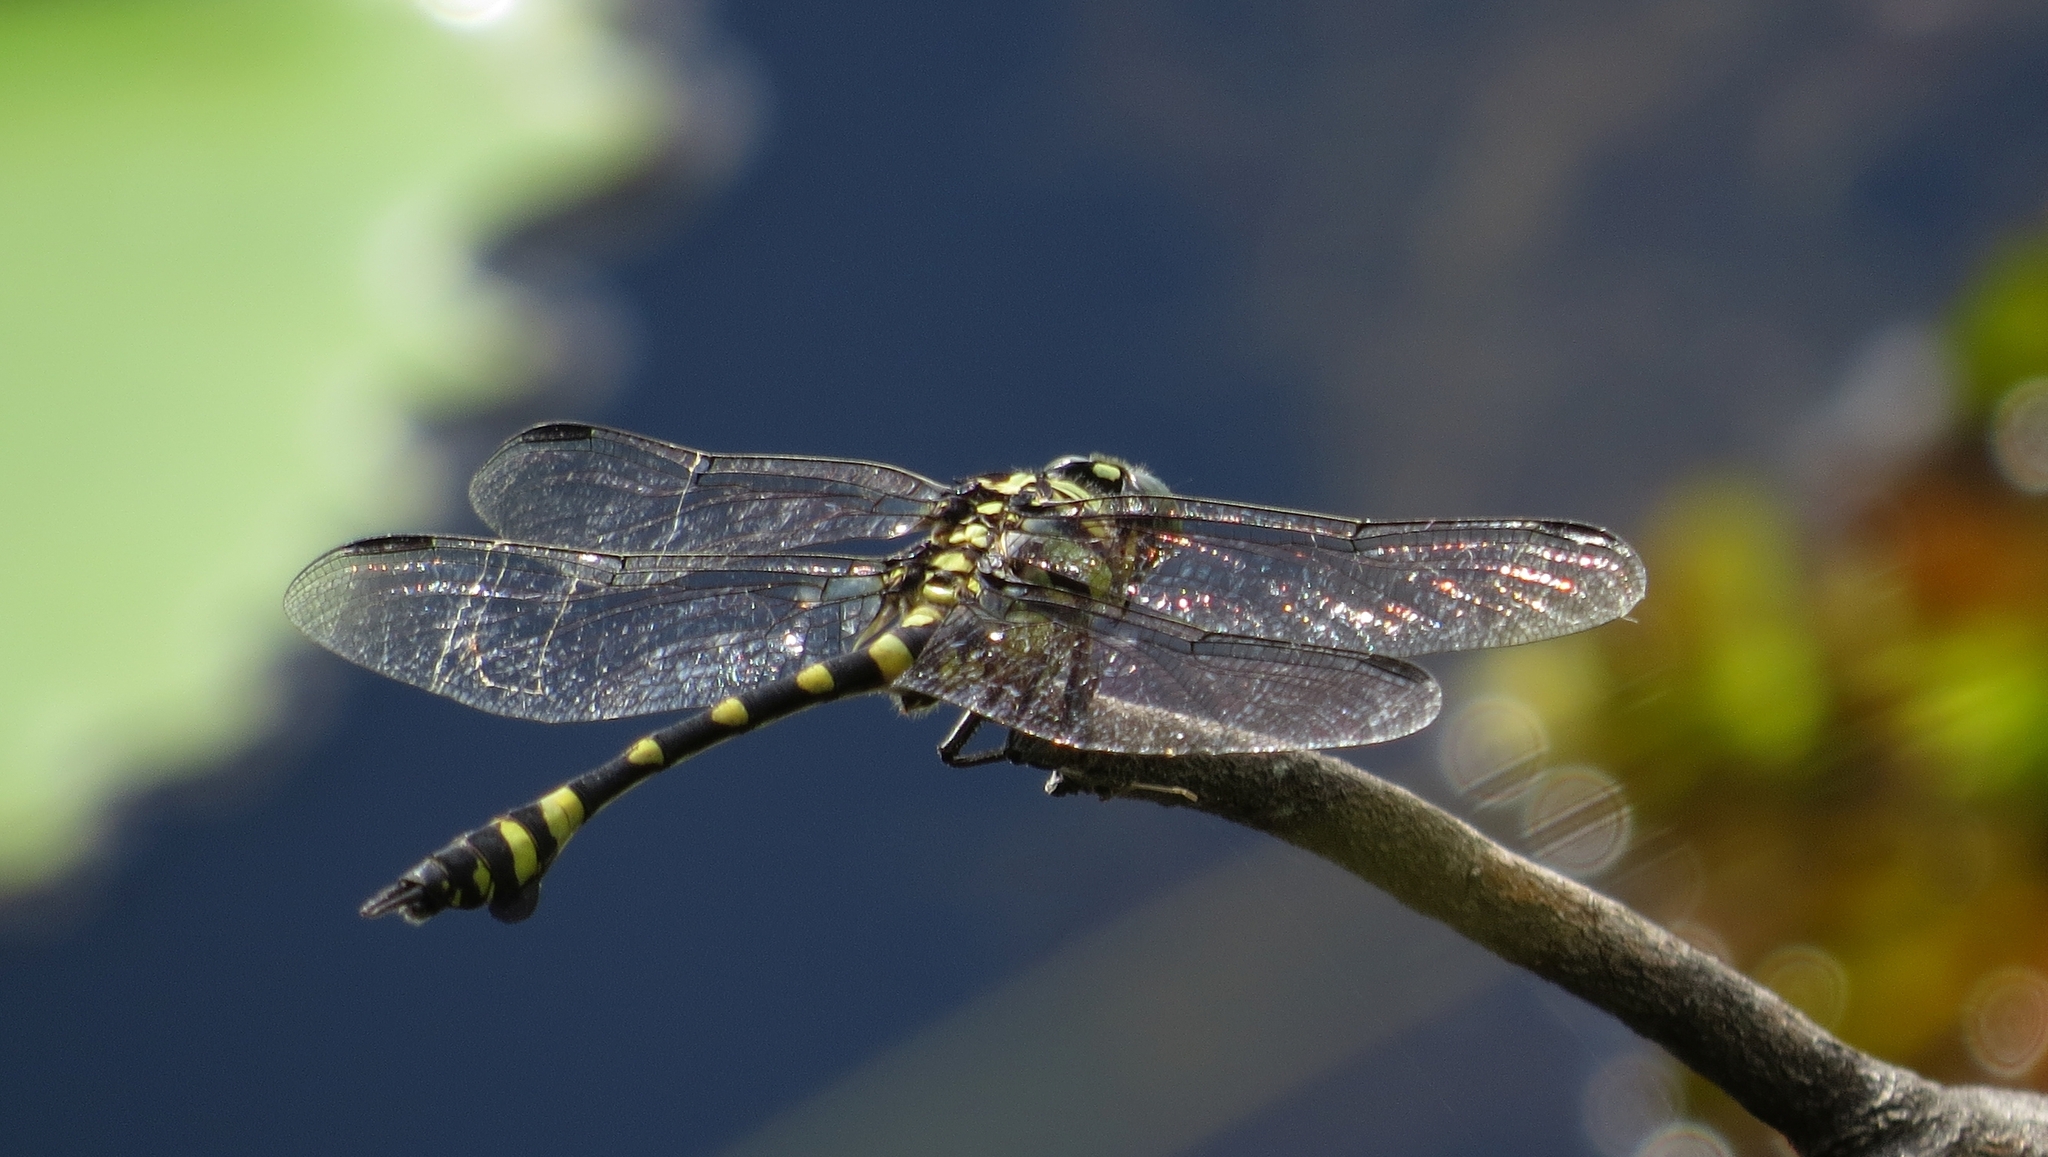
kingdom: Animalia
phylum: Arthropoda
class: Insecta
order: Odonata
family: Gomphidae
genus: Ictinogomphus
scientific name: Ictinogomphus australis
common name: Australian tiger
